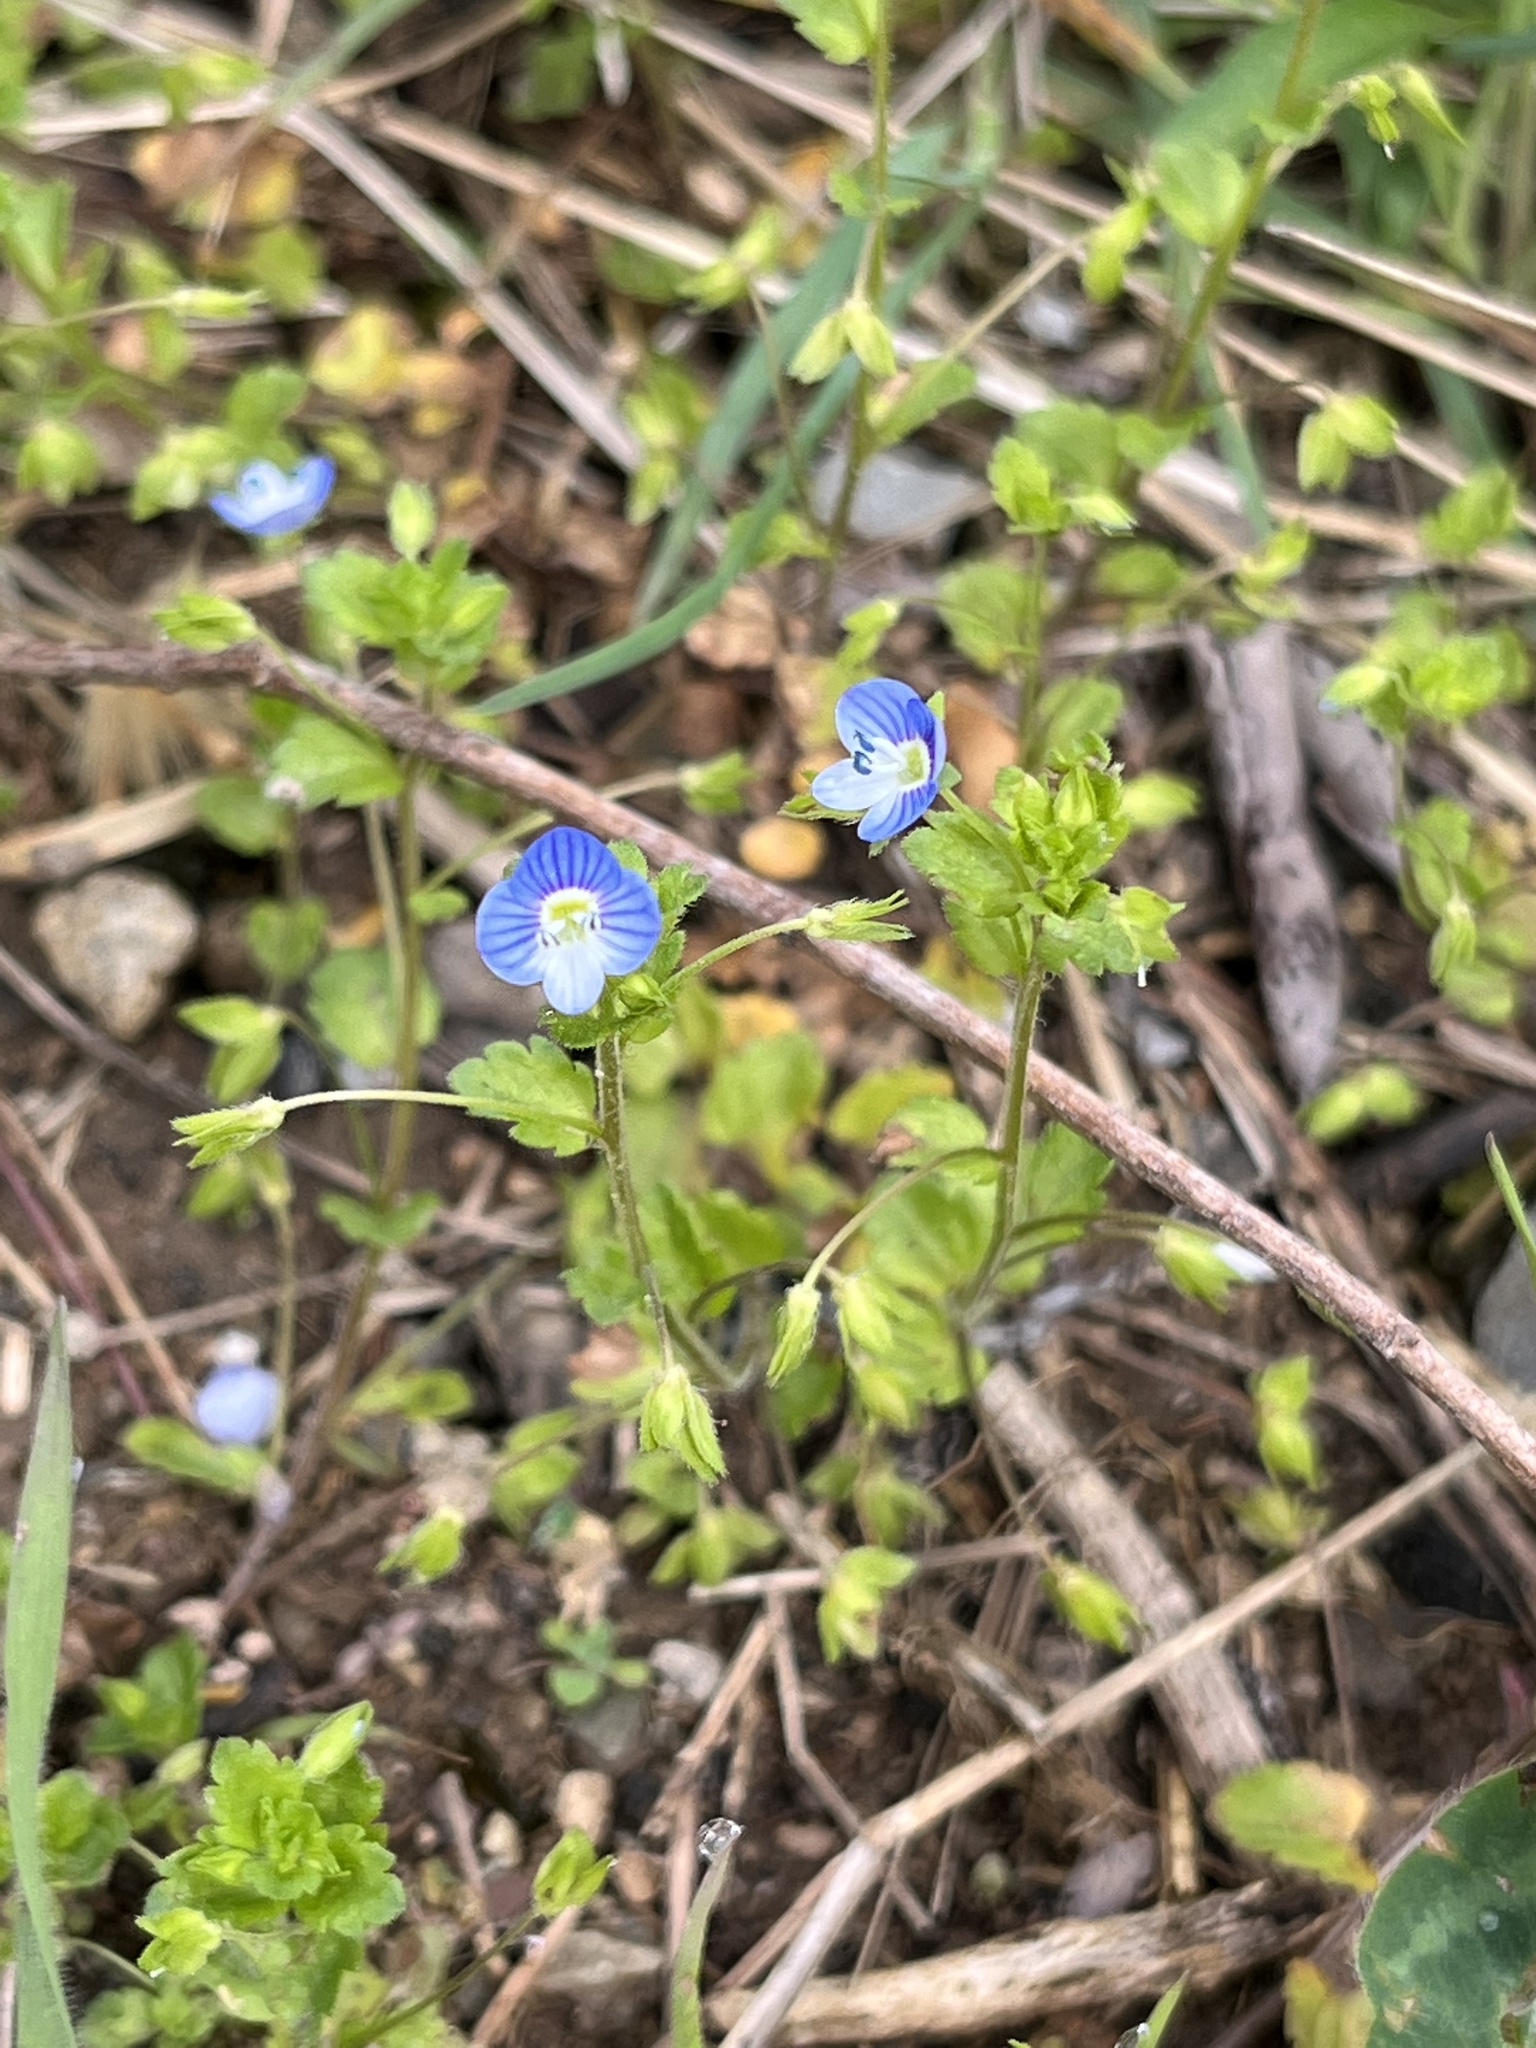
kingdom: Plantae
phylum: Tracheophyta
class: Magnoliopsida
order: Lamiales
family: Plantaginaceae
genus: Veronica
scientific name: Veronica persica
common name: Common field-speedwell
